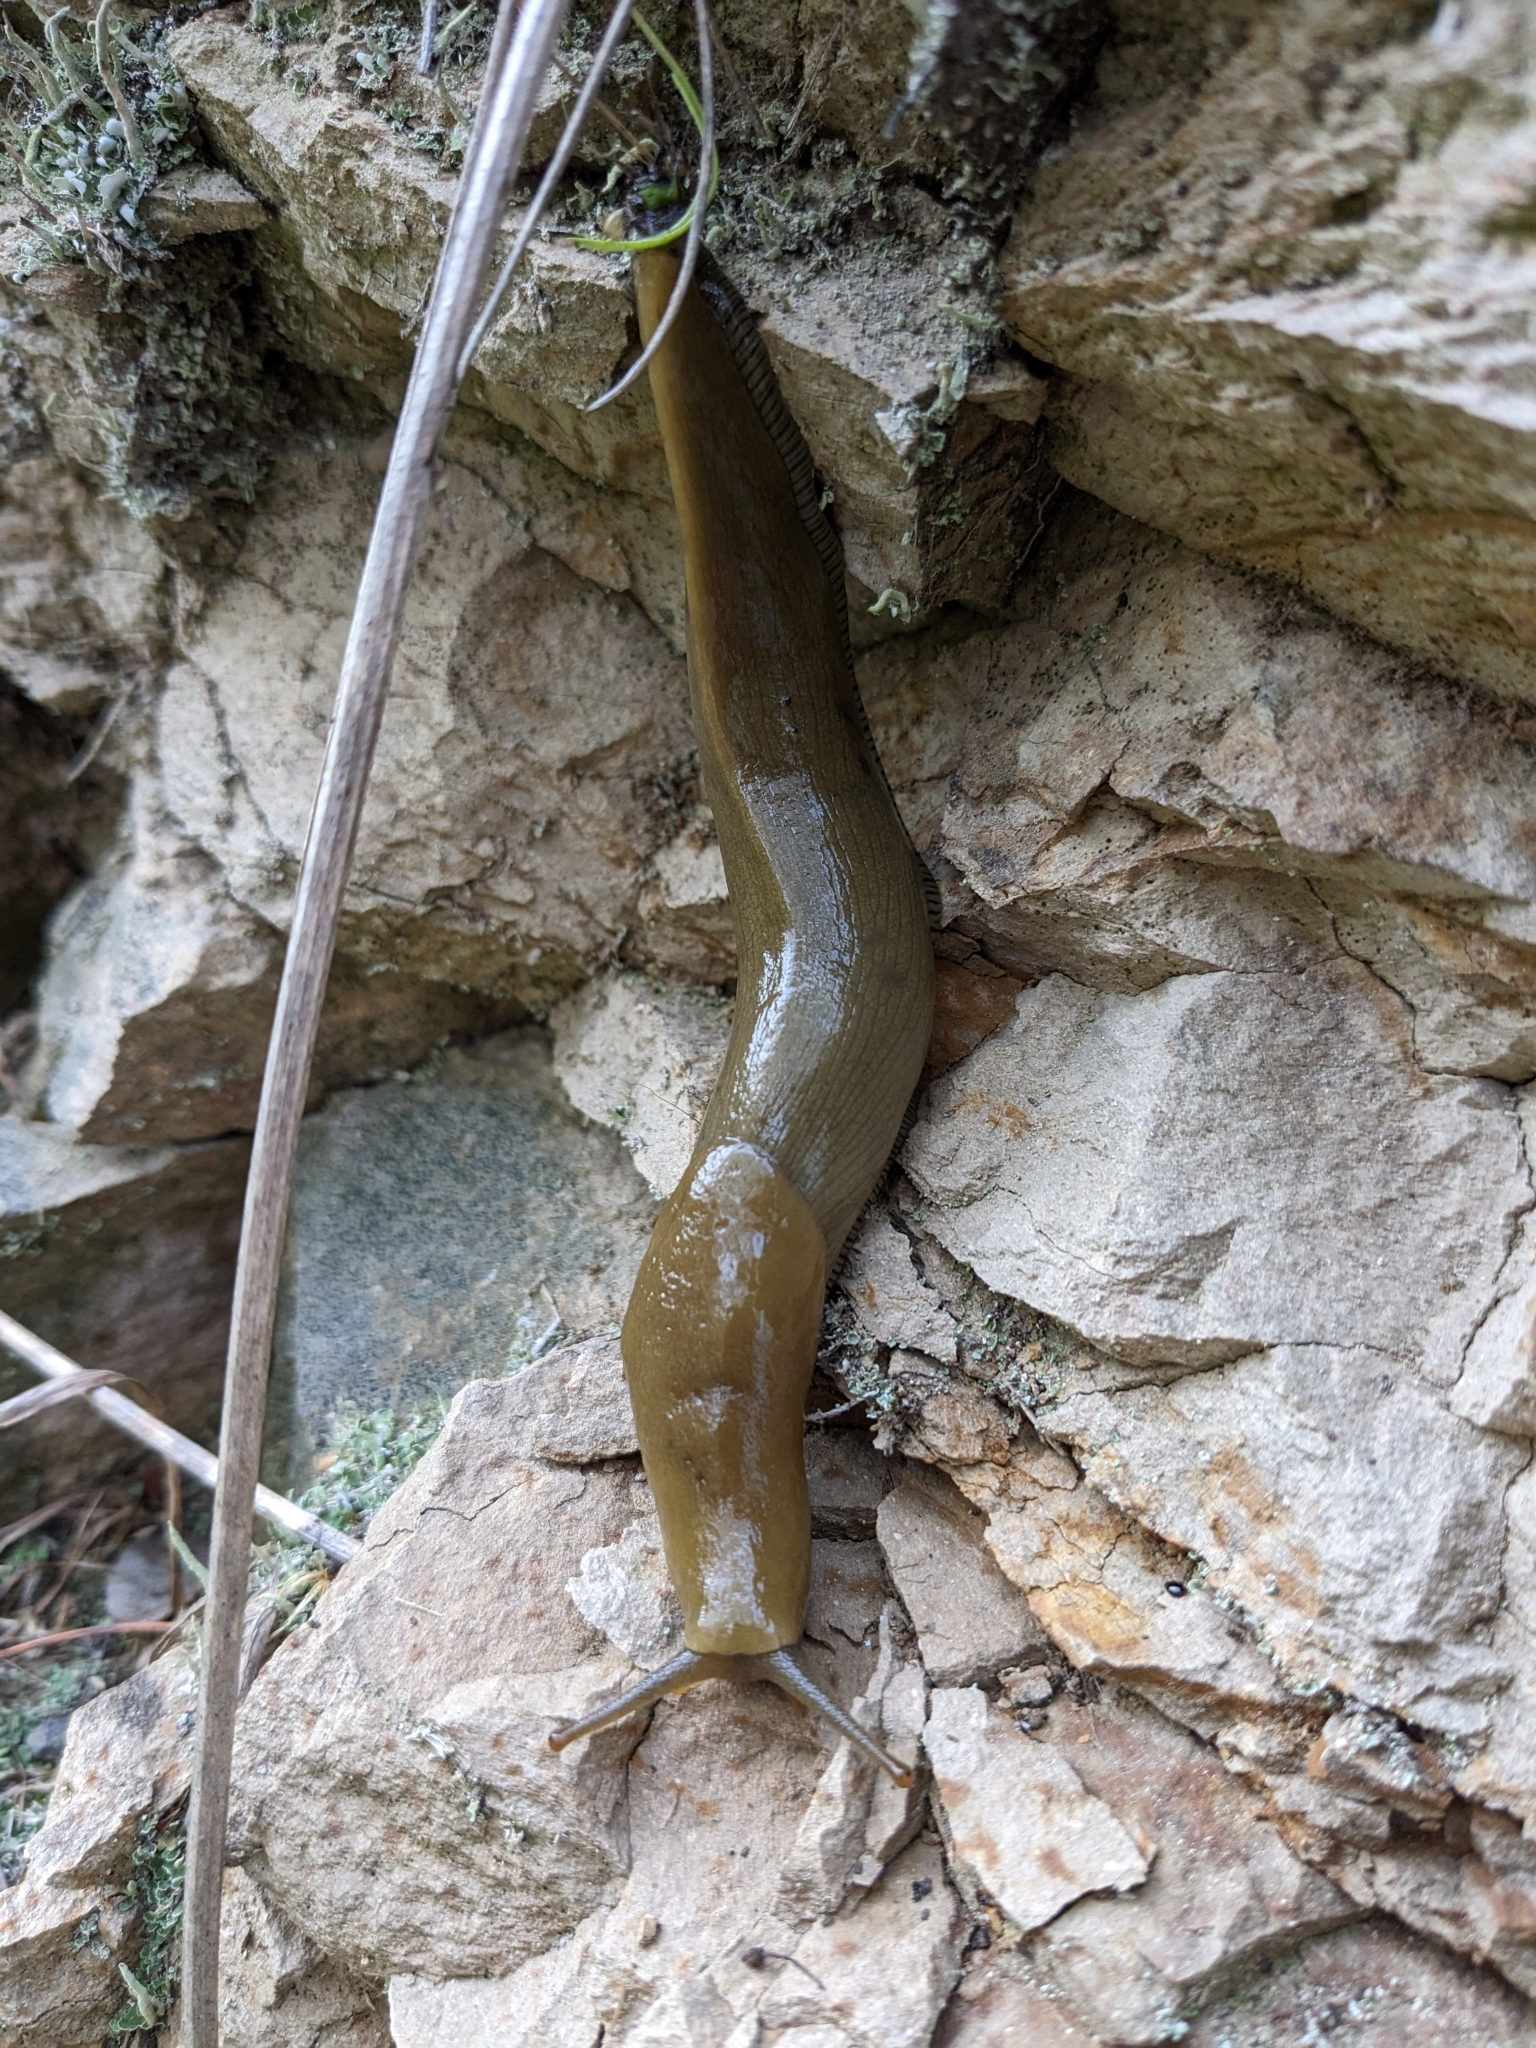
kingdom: Animalia
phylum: Mollusca
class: Gastropoda
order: Stylommatophora
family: Ariolimacidae
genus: Ariolimax
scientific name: Ariolimax buttoni
